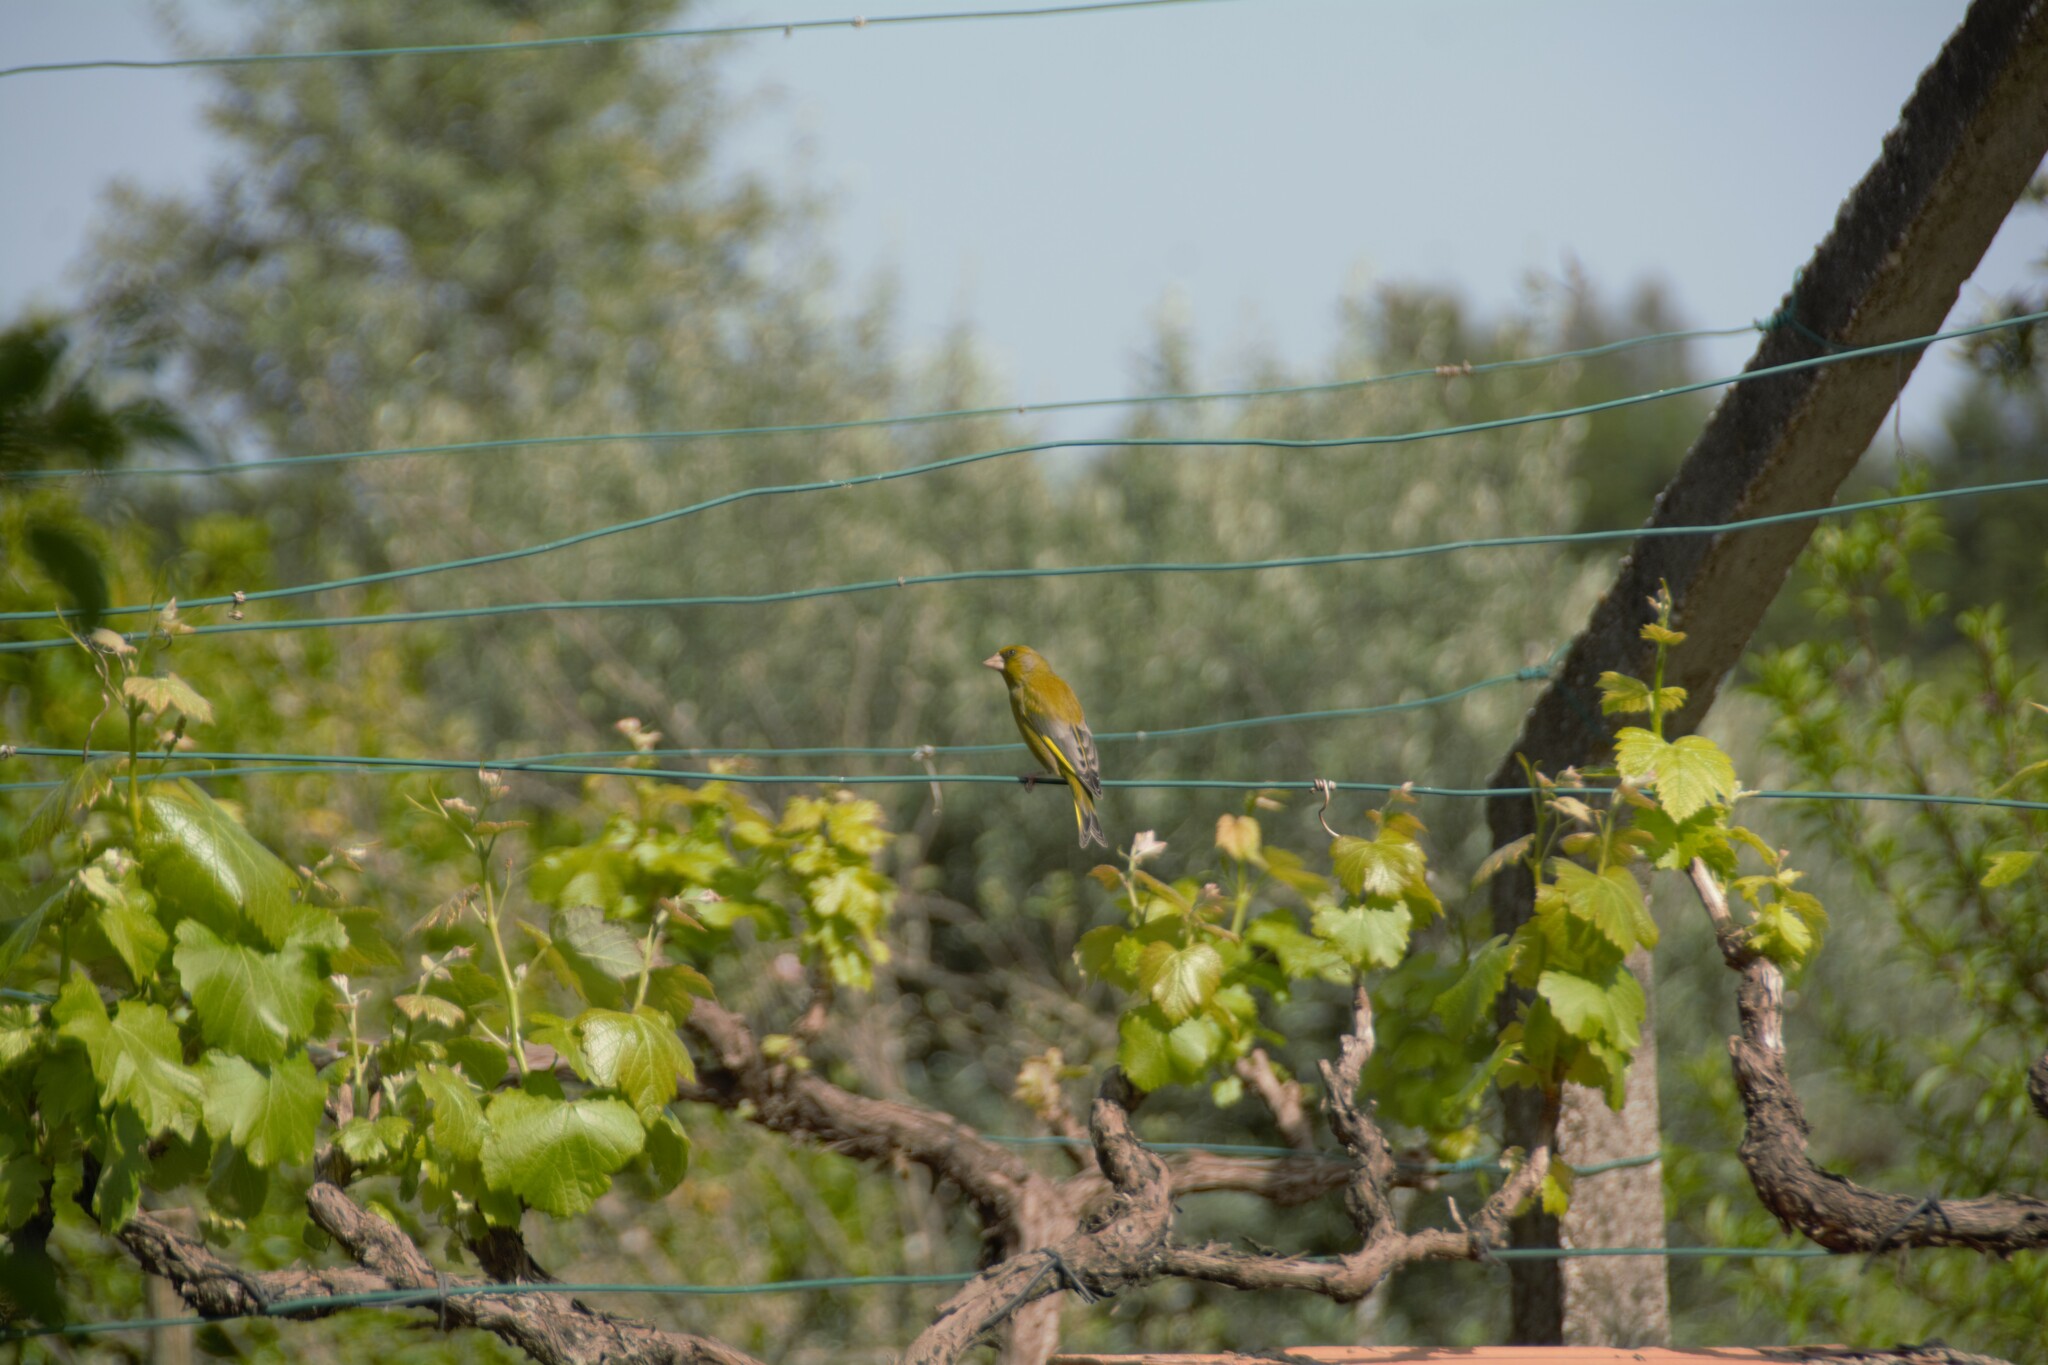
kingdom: Plantae
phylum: Tracheophyta
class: Liliopsida
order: Poales
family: Poaceae
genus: Chloris
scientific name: Chloris chloris
